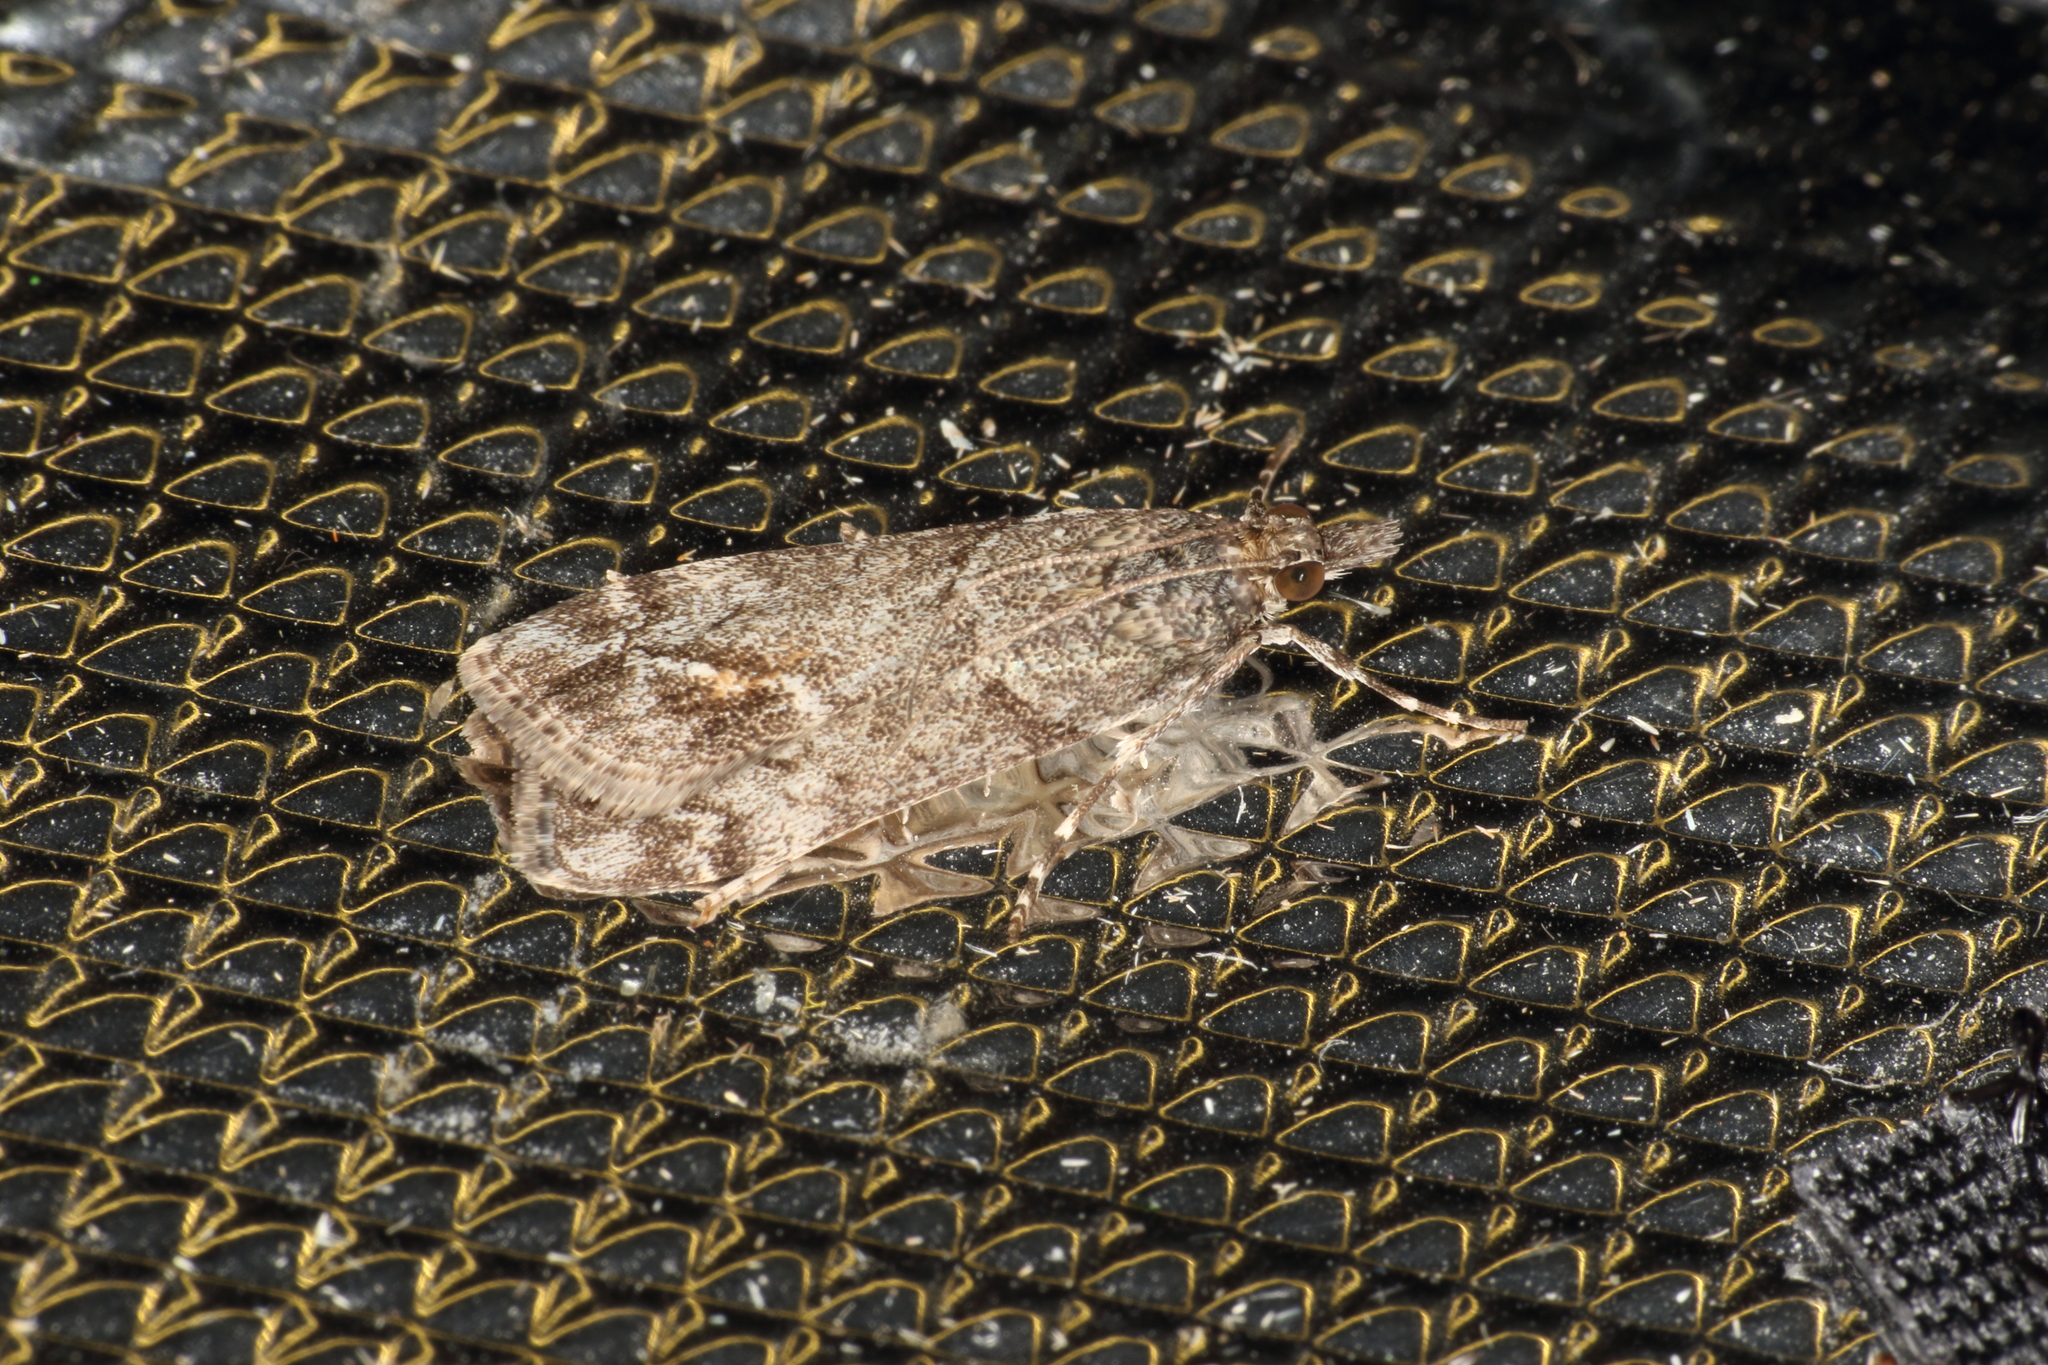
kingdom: Animalia
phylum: Arthropoda
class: Insecta
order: Lepidoptera
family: Crambidae
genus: Eudonia
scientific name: Eudonia submarginalis
